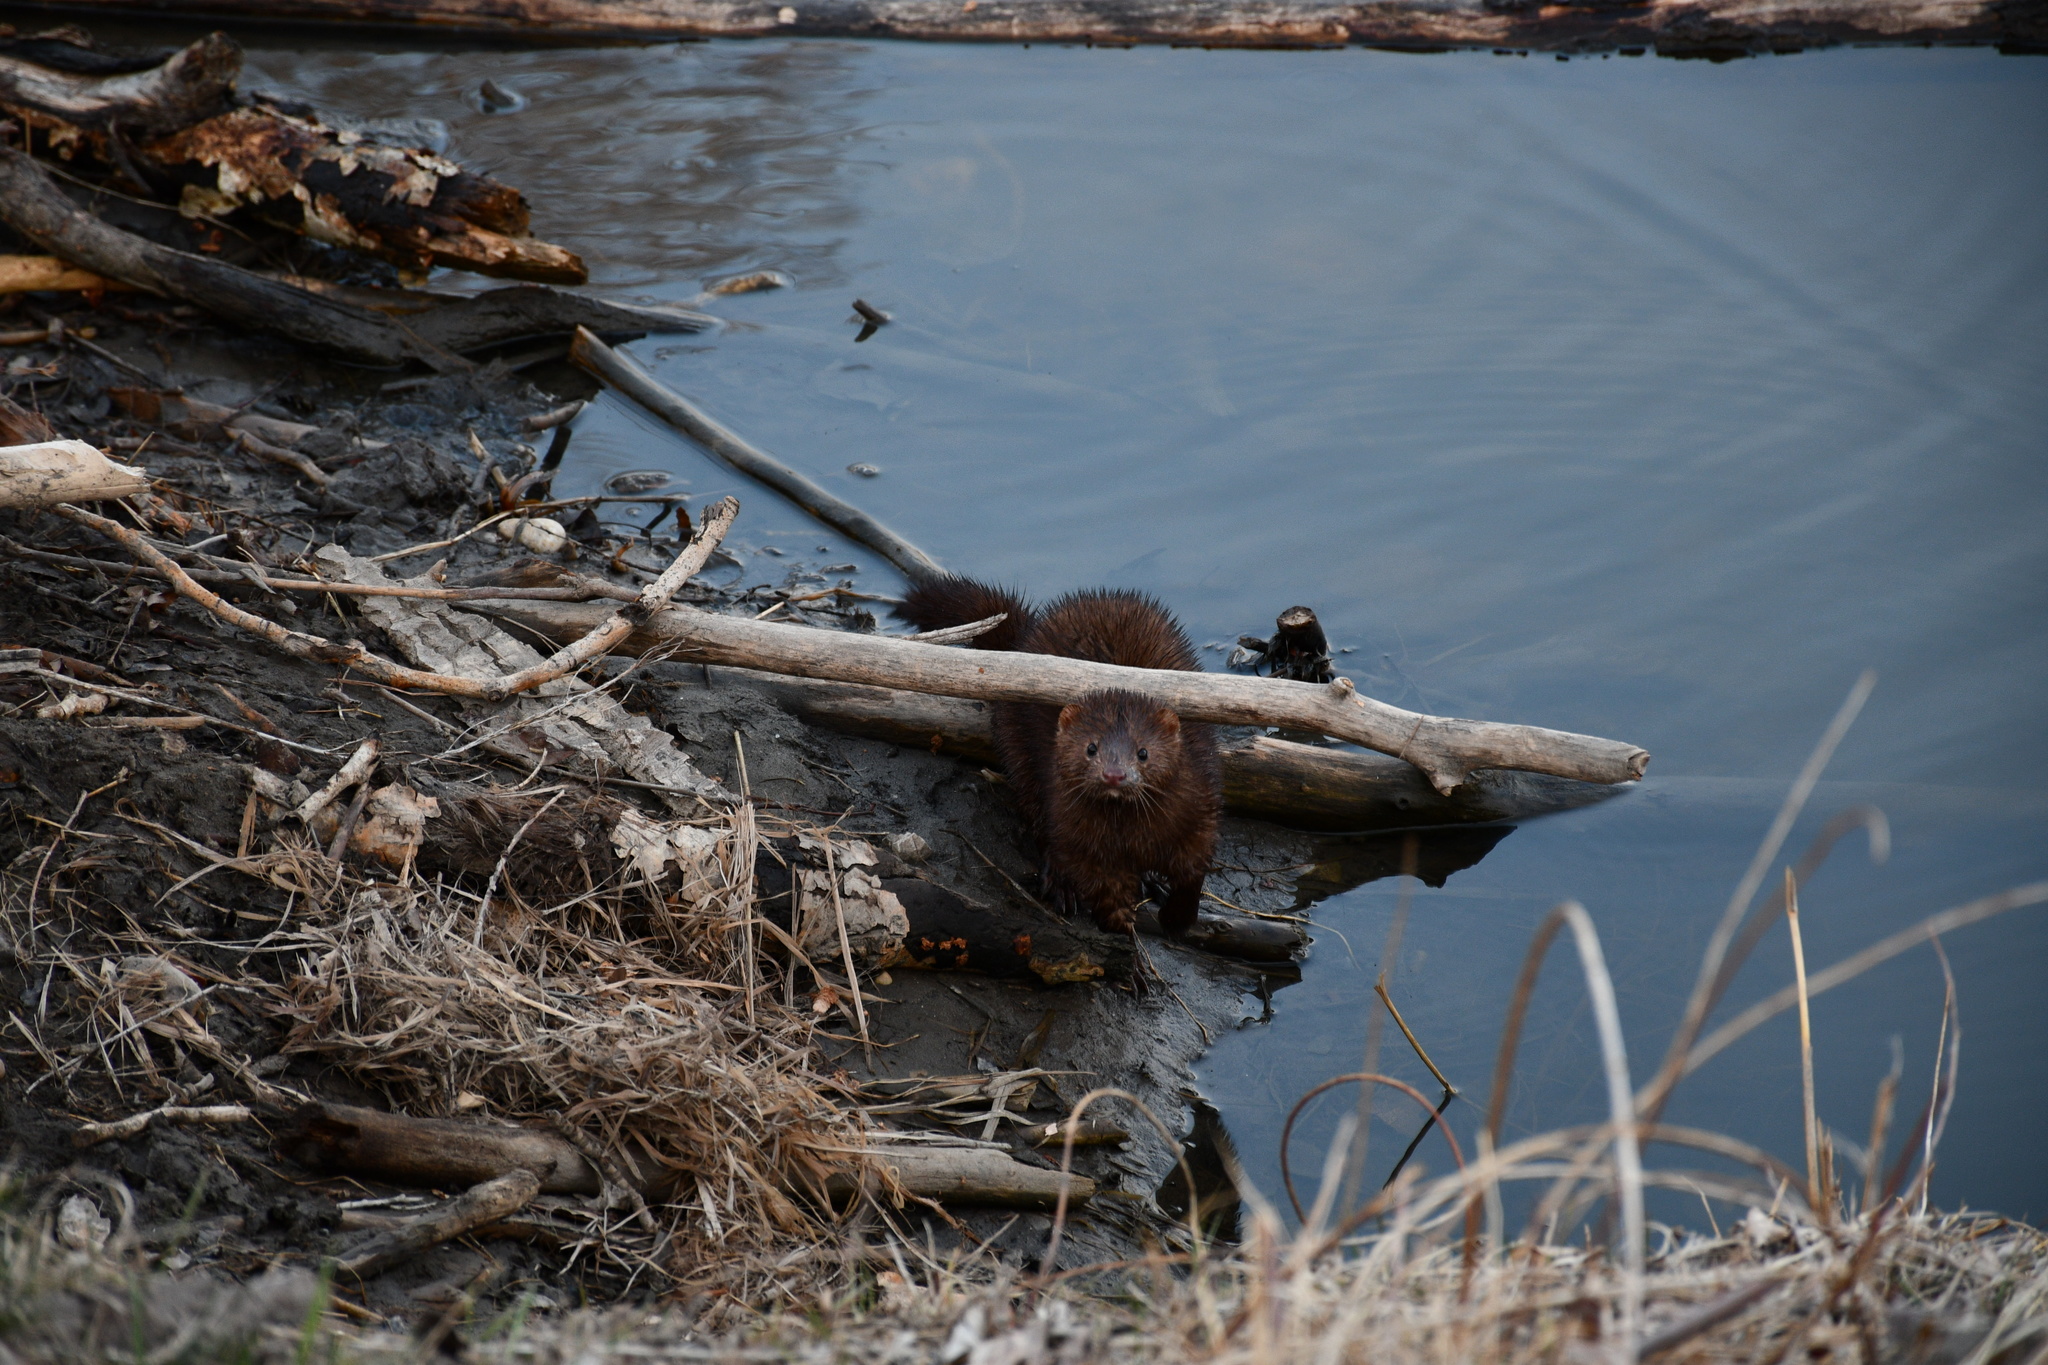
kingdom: Animalia
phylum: Chordata
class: Mammalia
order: Carnivora
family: Mustelidae
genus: Mustela
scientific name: Mustela
